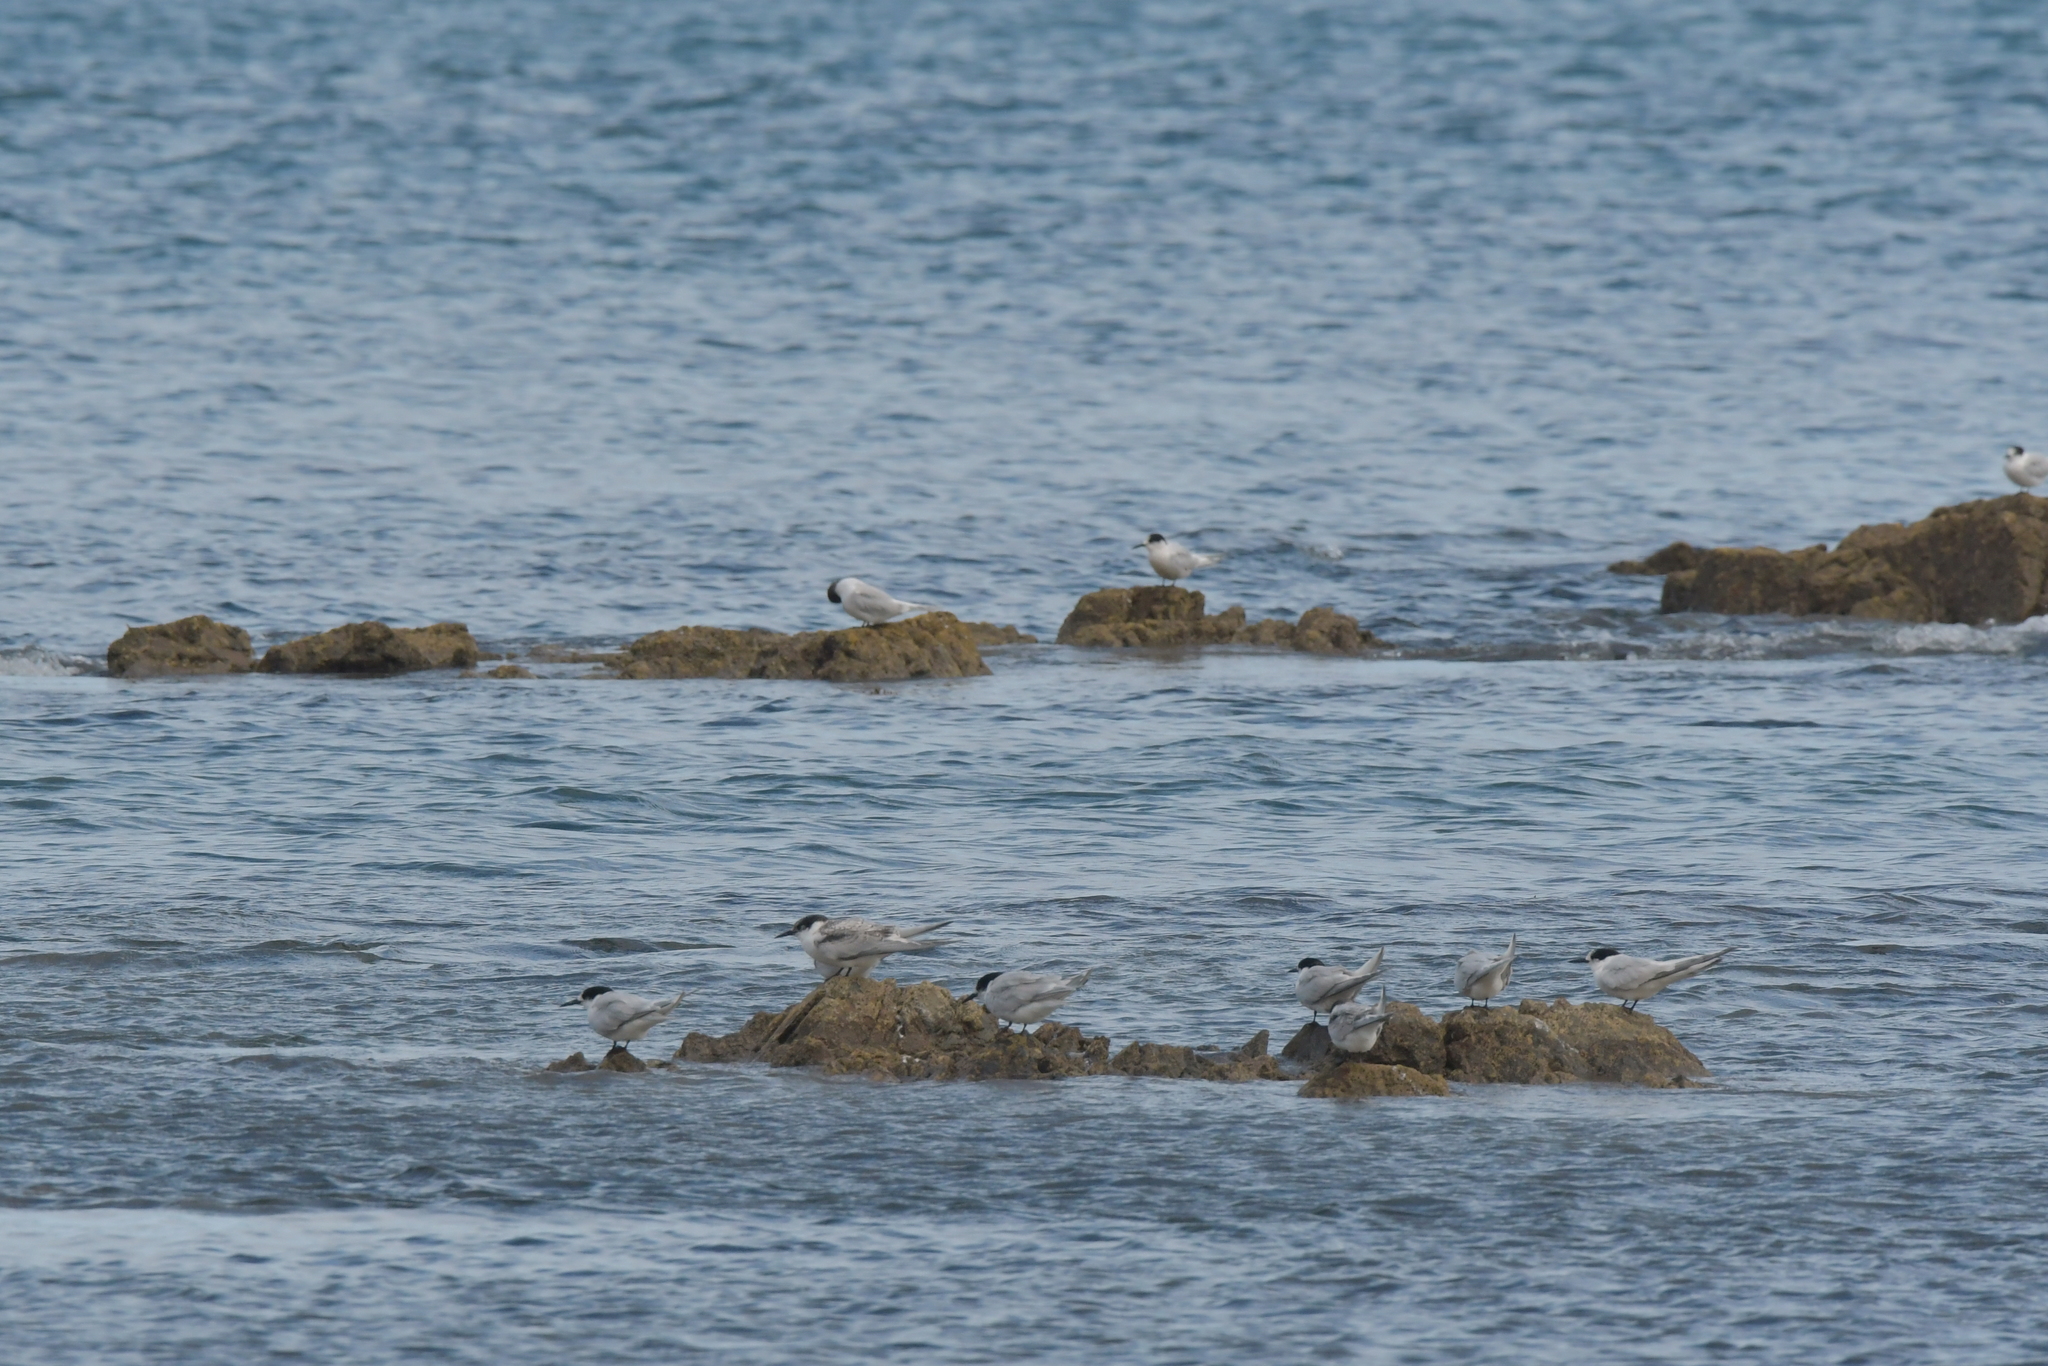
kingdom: Animalia
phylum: Chordata
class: Aves
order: Charadriiformes
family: Laridae
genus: Sterna
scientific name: Sterna striata
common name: White-fronted tern
